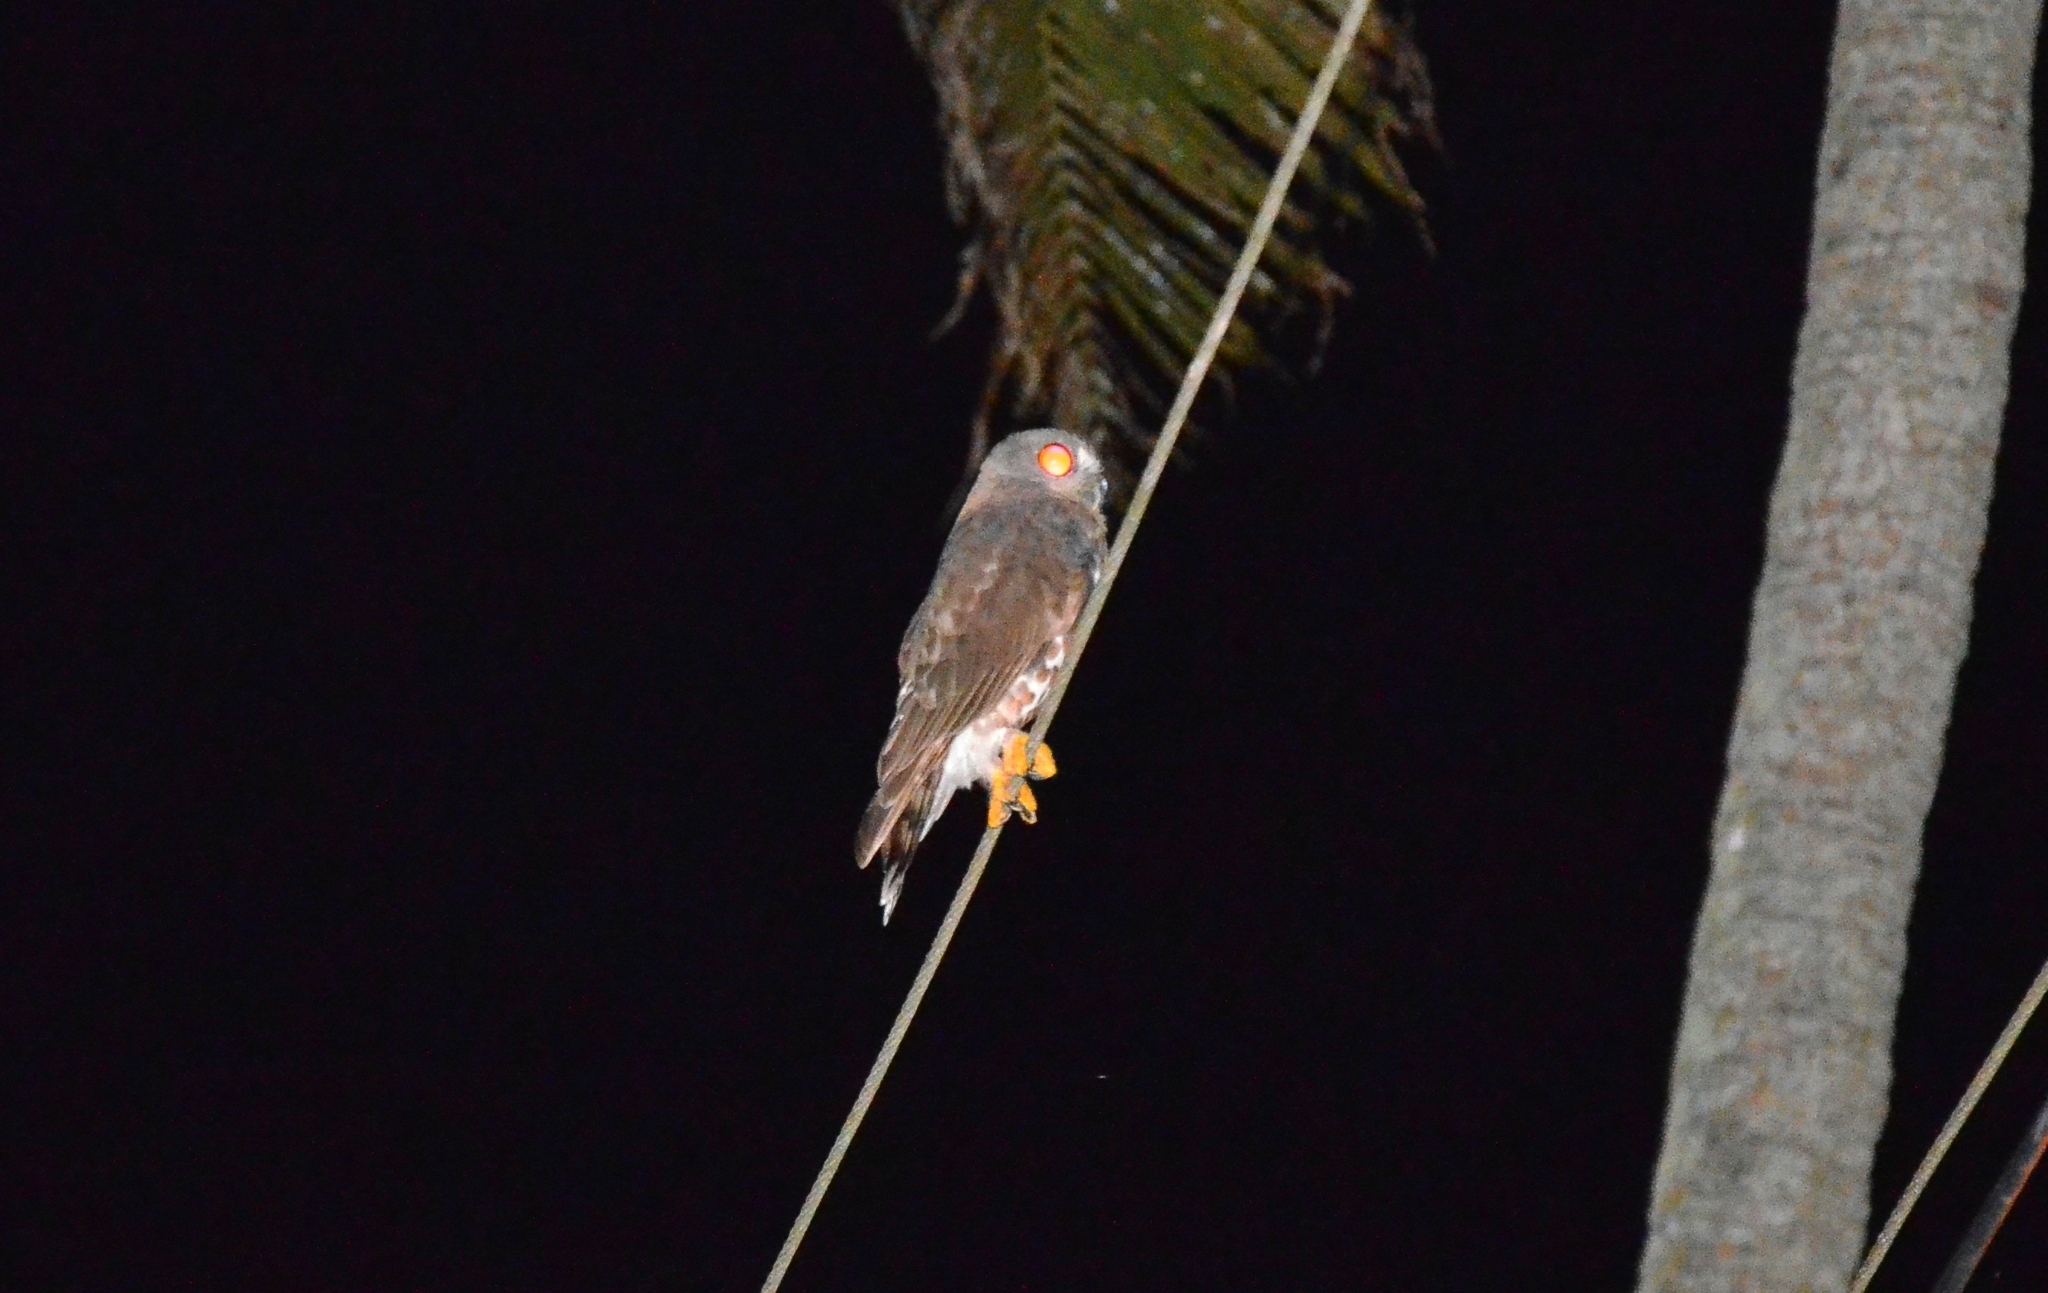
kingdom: Animalia
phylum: Chordata
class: Aves
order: Strigiformes
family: Strigidae
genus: Ninox
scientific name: Ninox scutulata
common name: Brown hawk-owl
